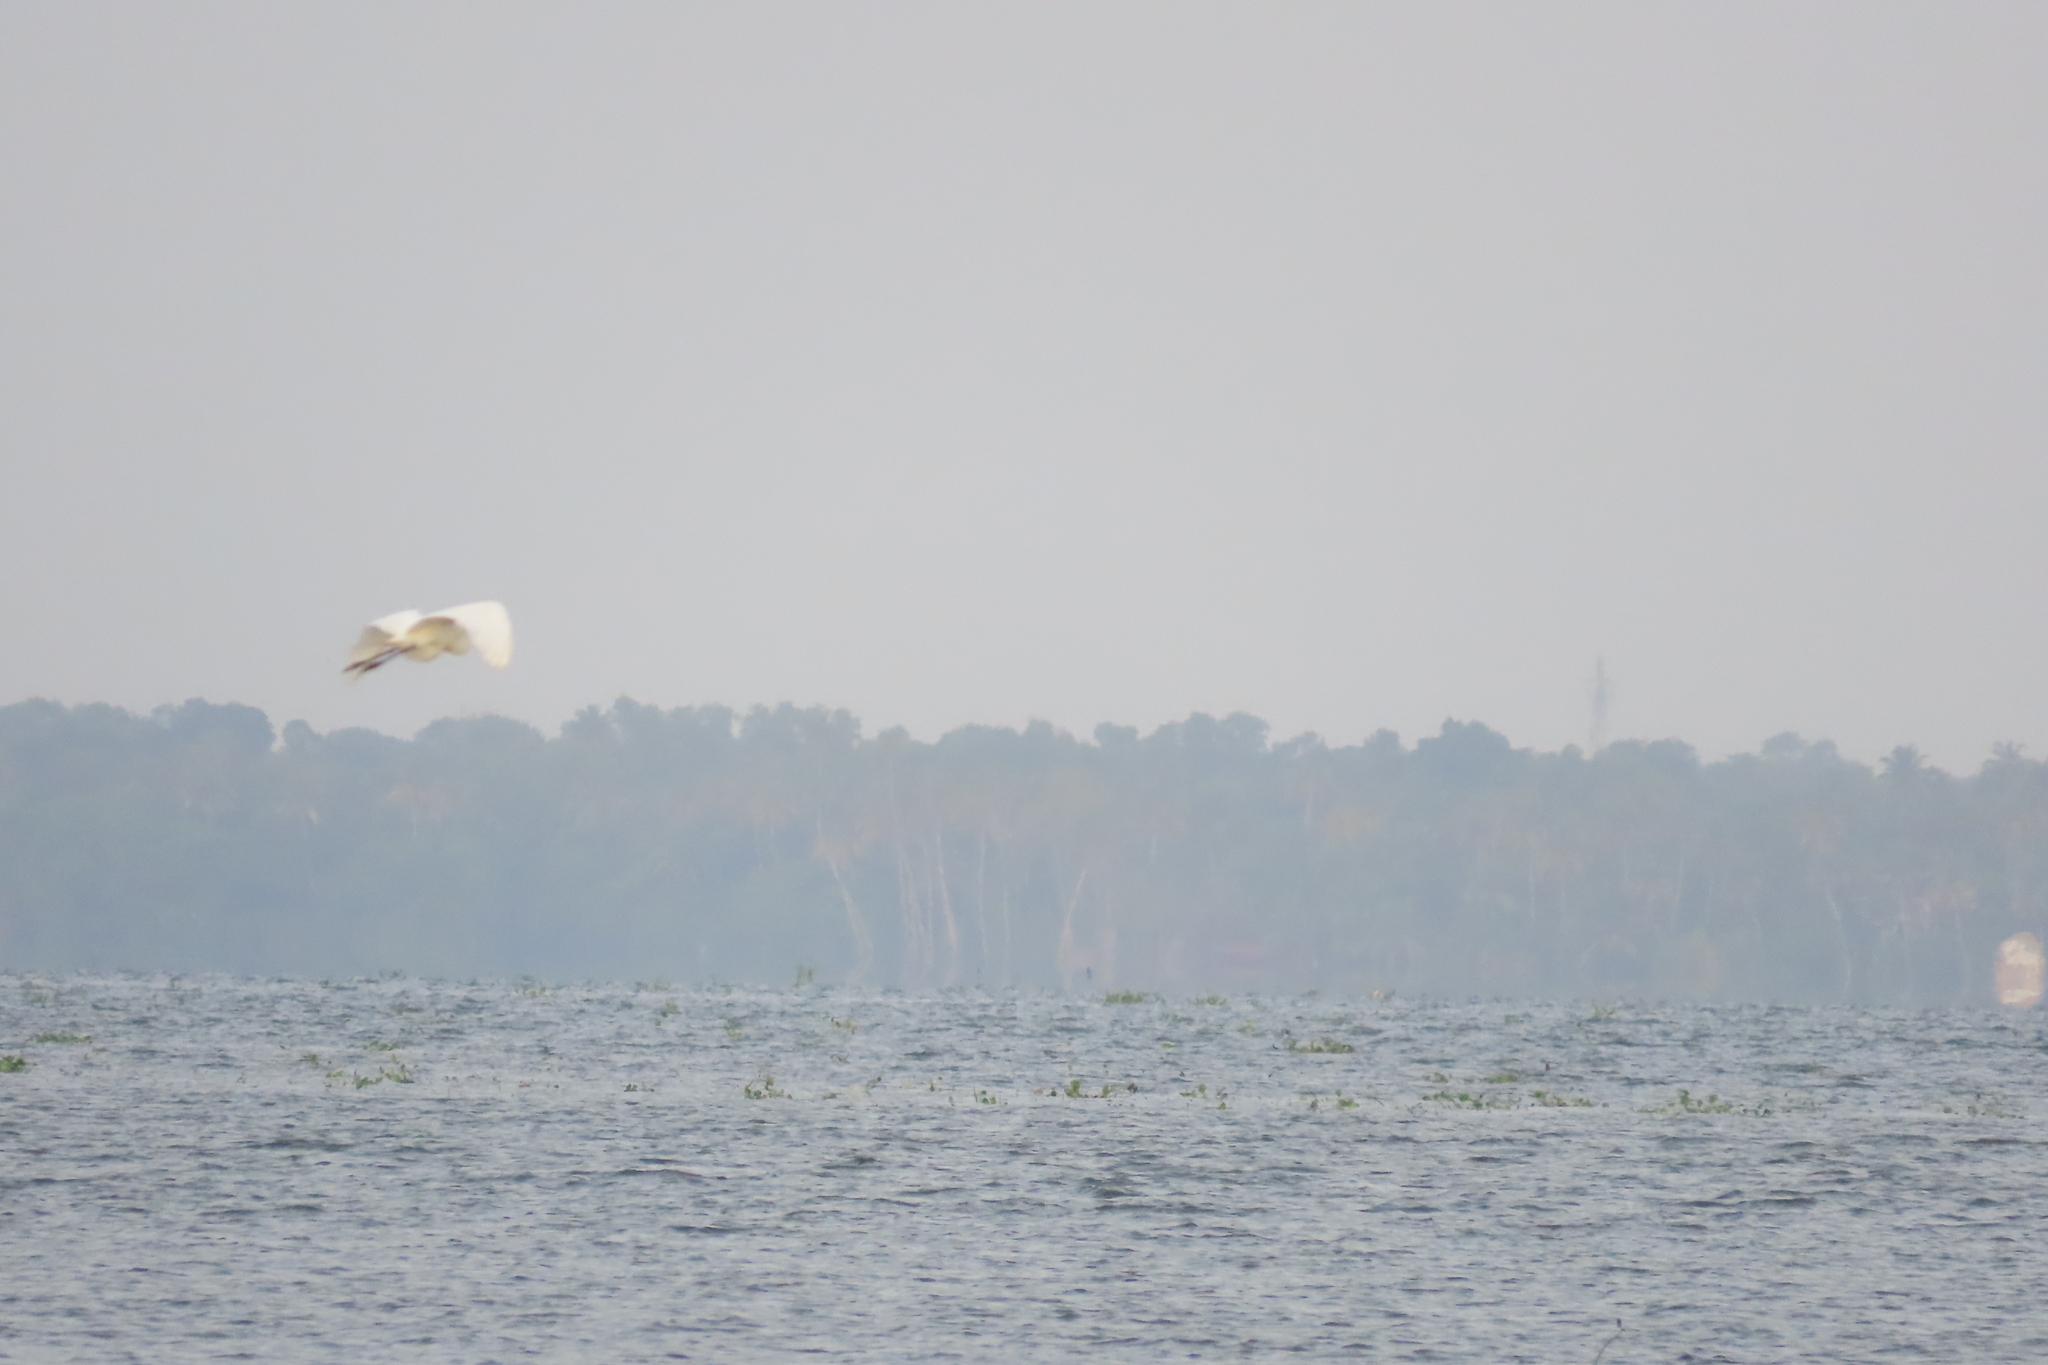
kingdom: Animalia
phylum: Chordata
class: Aves
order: Pelecaniformes
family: Ardeidae
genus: Ardea
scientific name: Ardea alba
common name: Great egret
